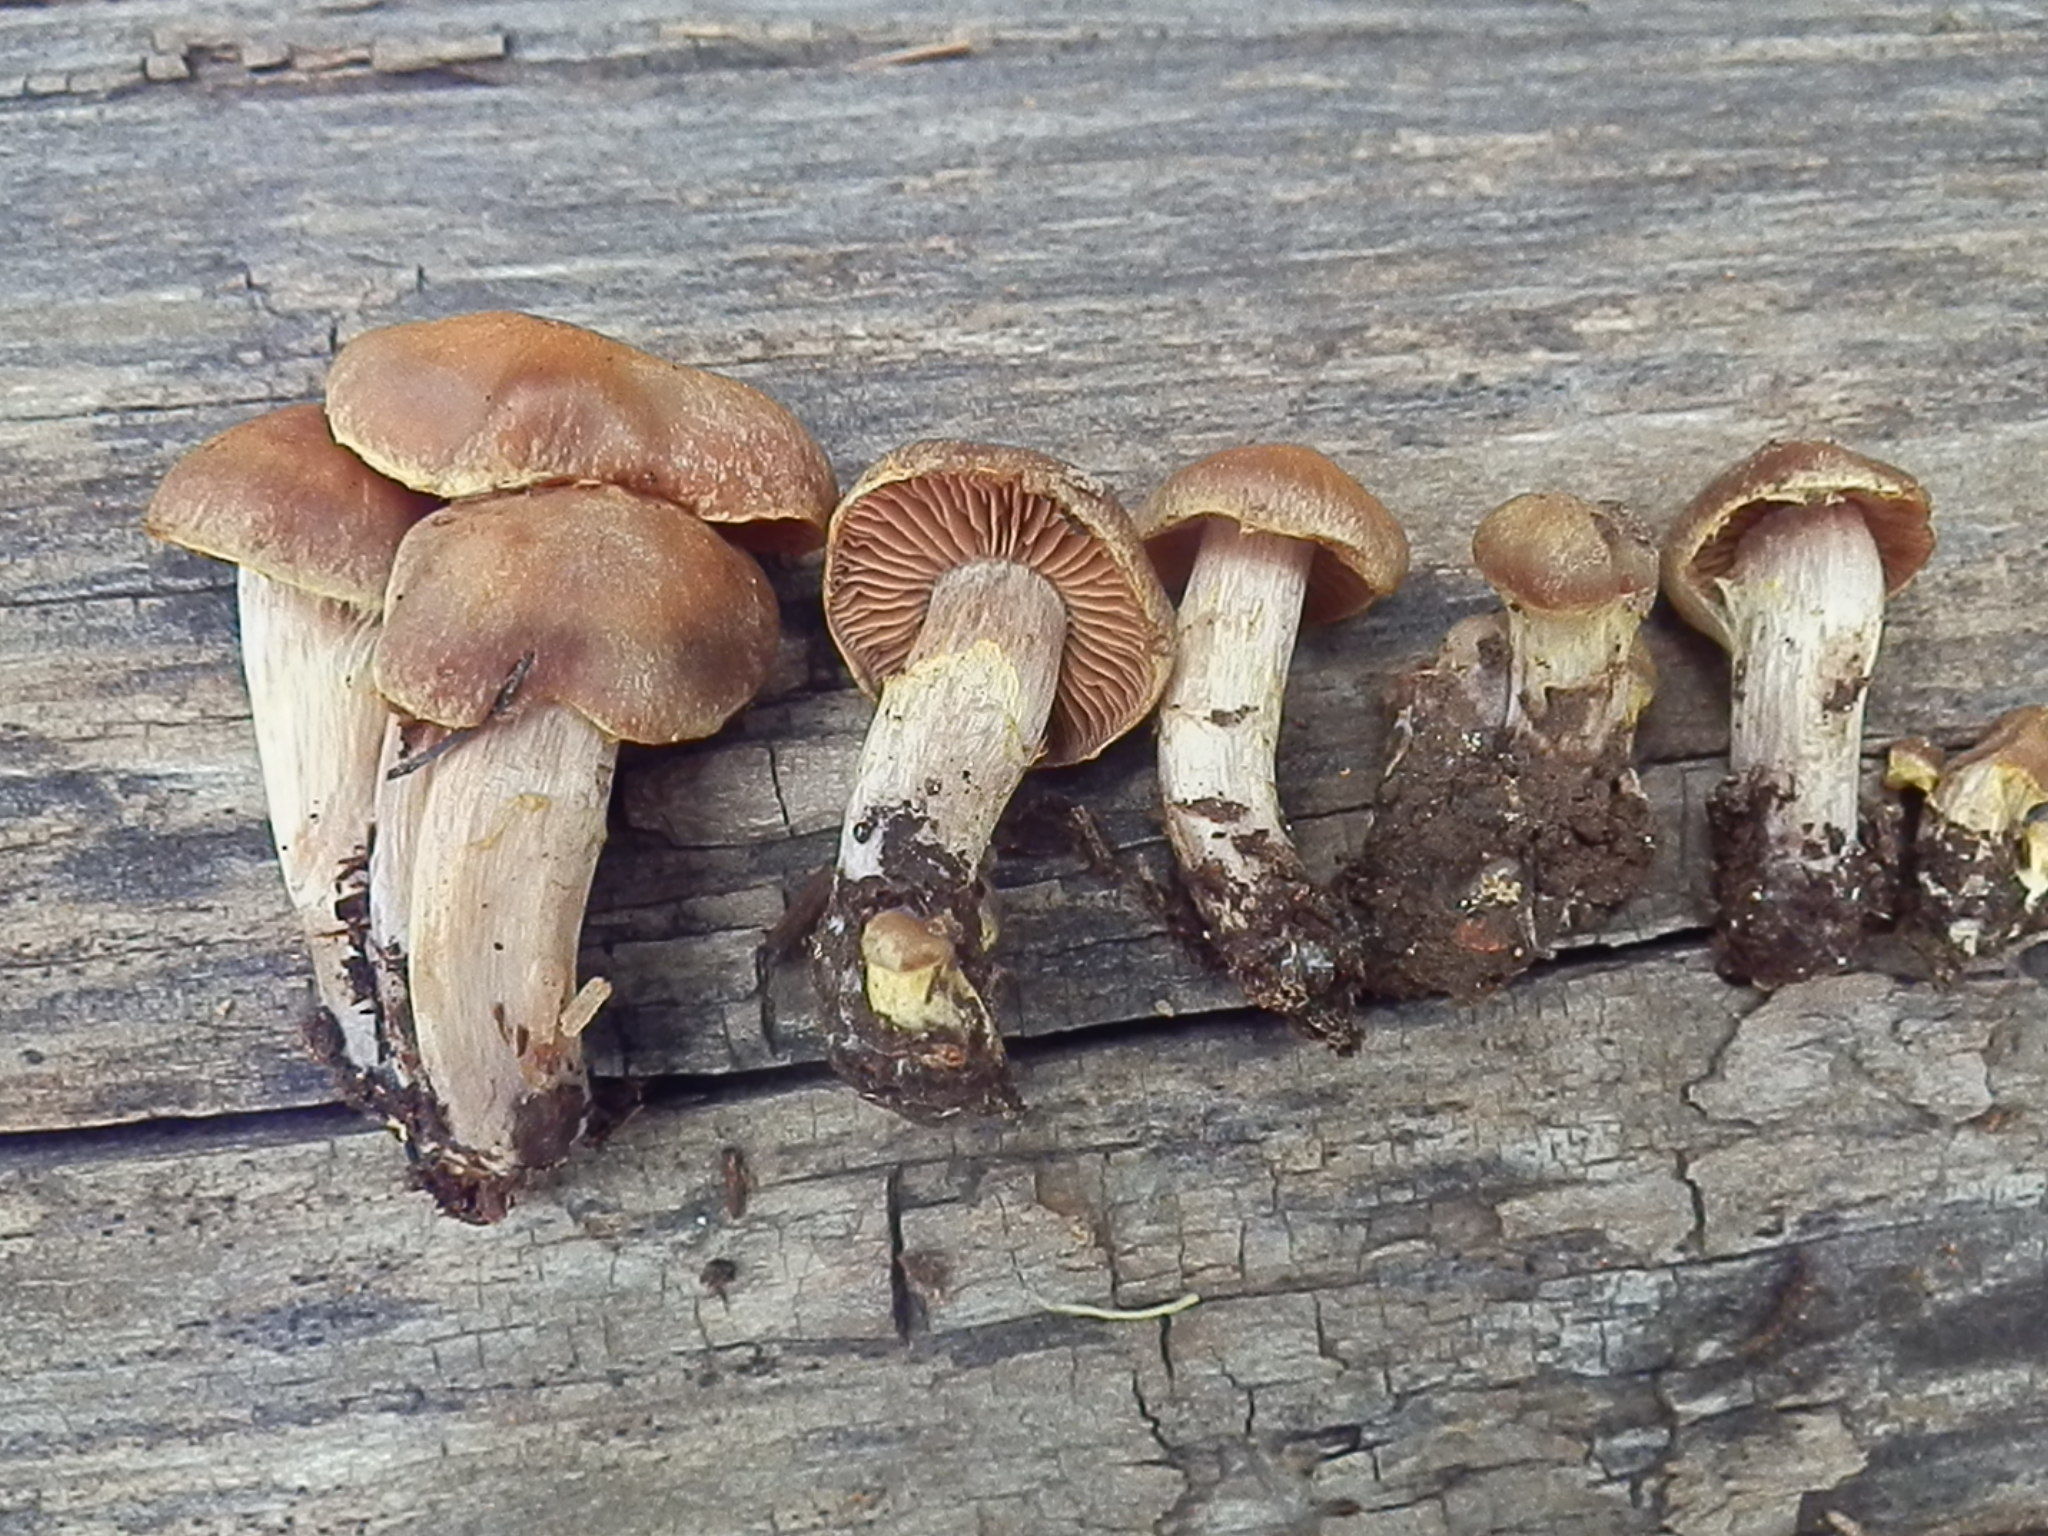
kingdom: Fungi
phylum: Basidiomycota
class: Agaricomycetes
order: Agaricales
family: Cortinariaceae
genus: Cortinarius
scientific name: Cortinarius ahsii
